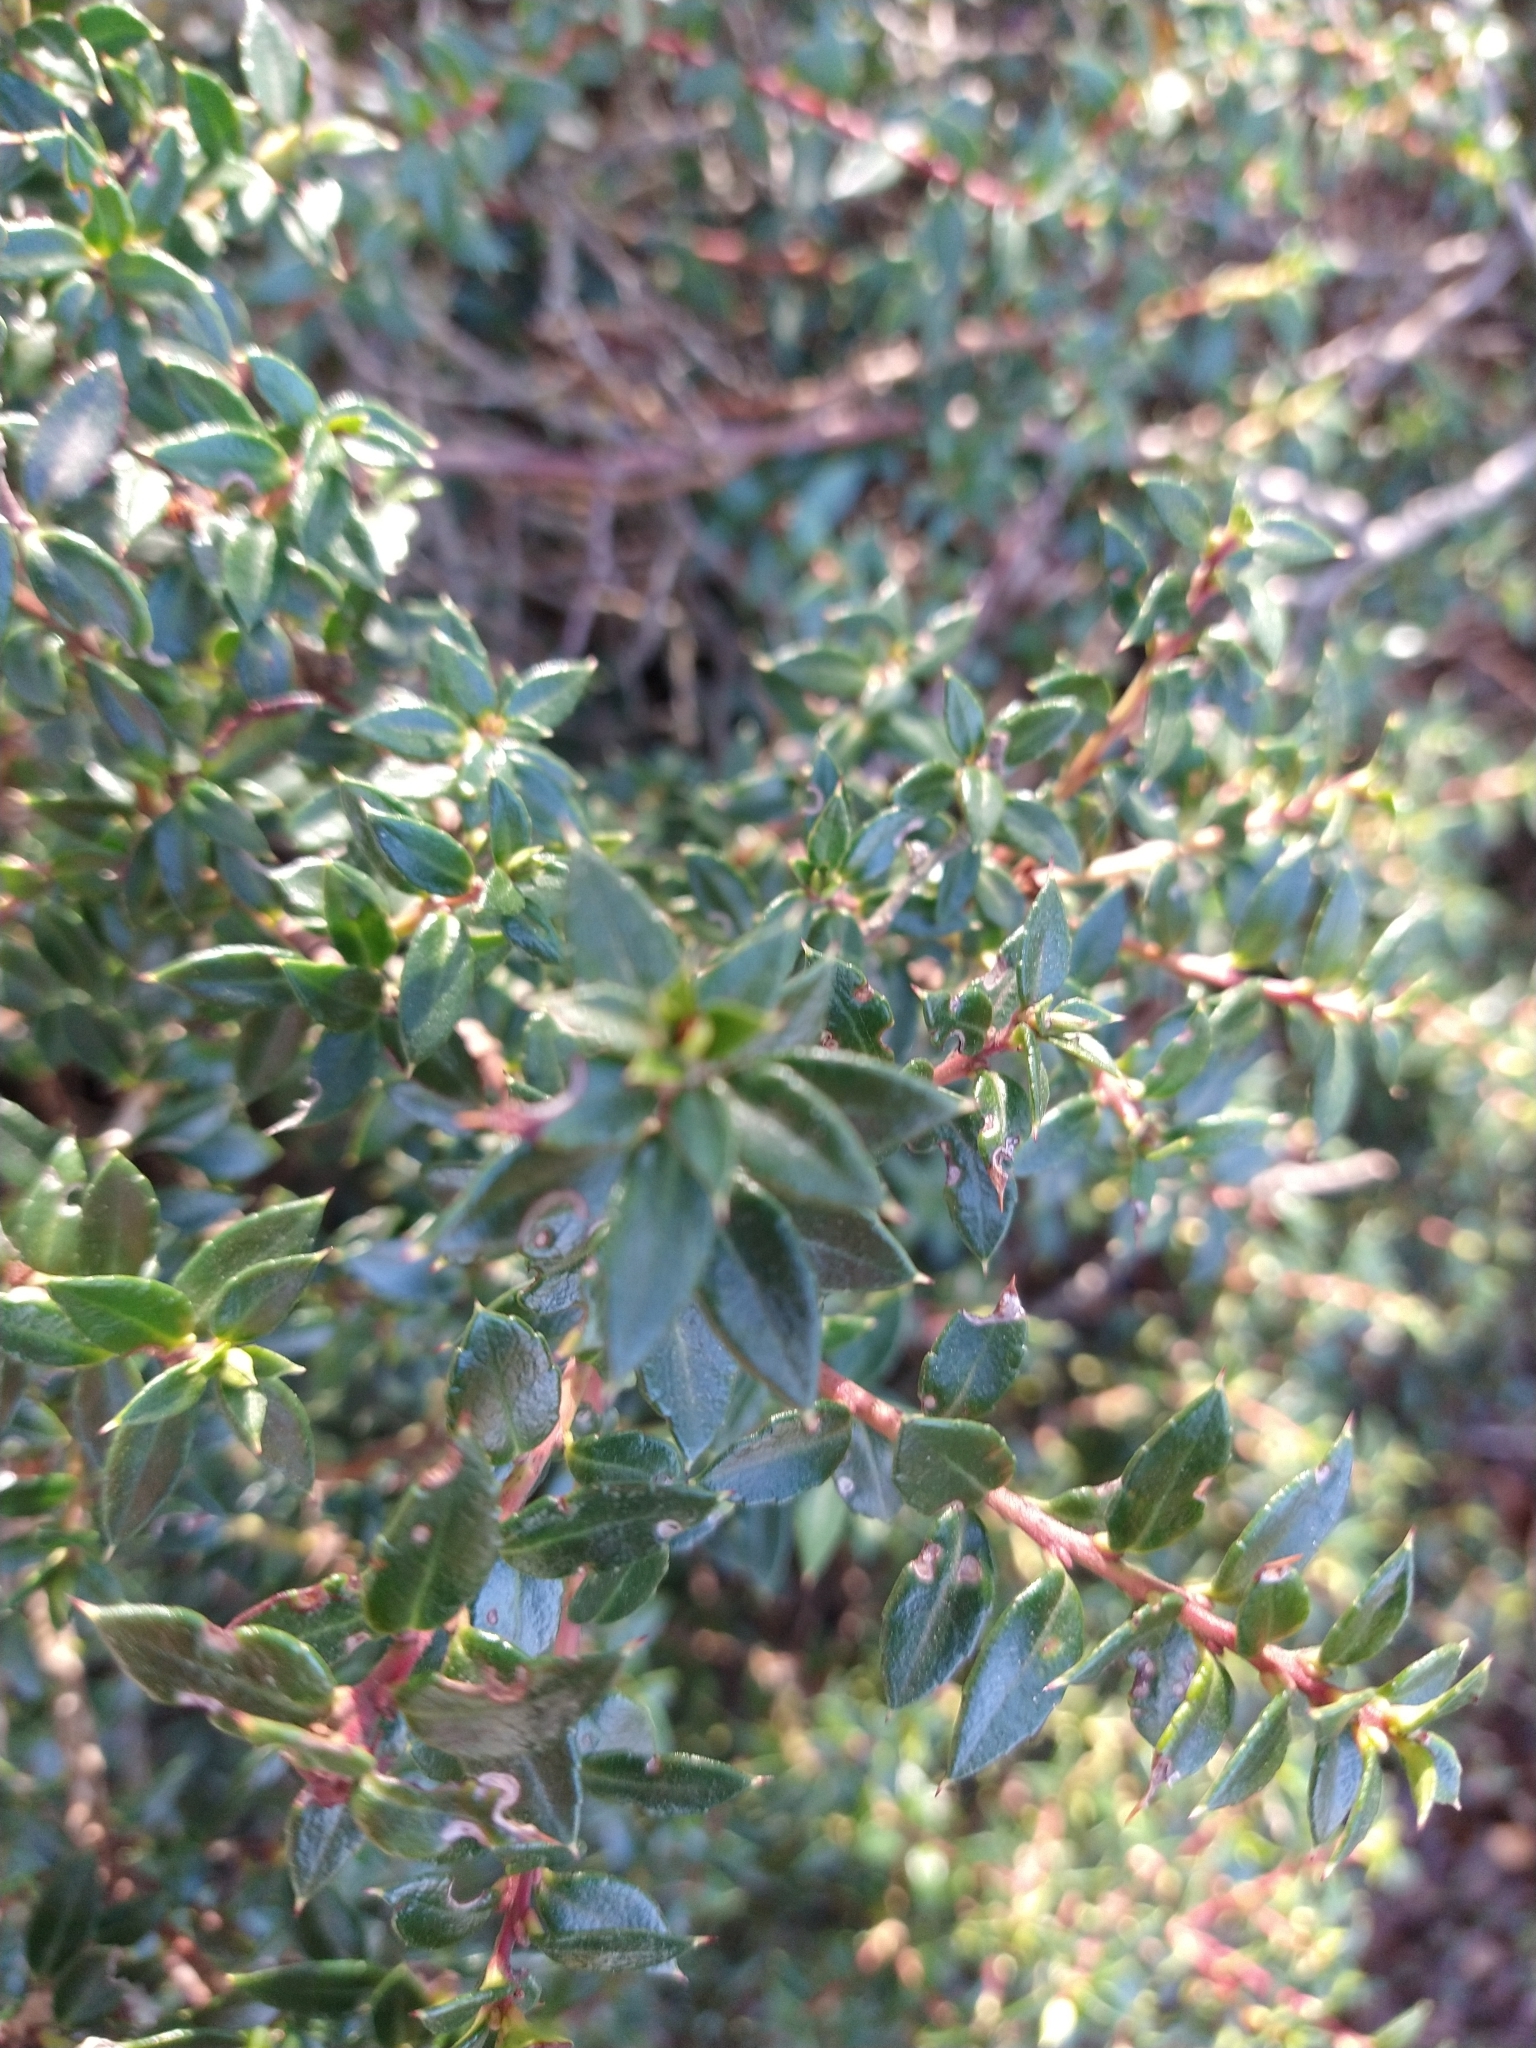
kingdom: Plantae
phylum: Tracheophyta
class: Magnoliopsida
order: Ericales
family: Ericaceae
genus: Gaultheria
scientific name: Gaultheria mucronata
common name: Prickly heath
